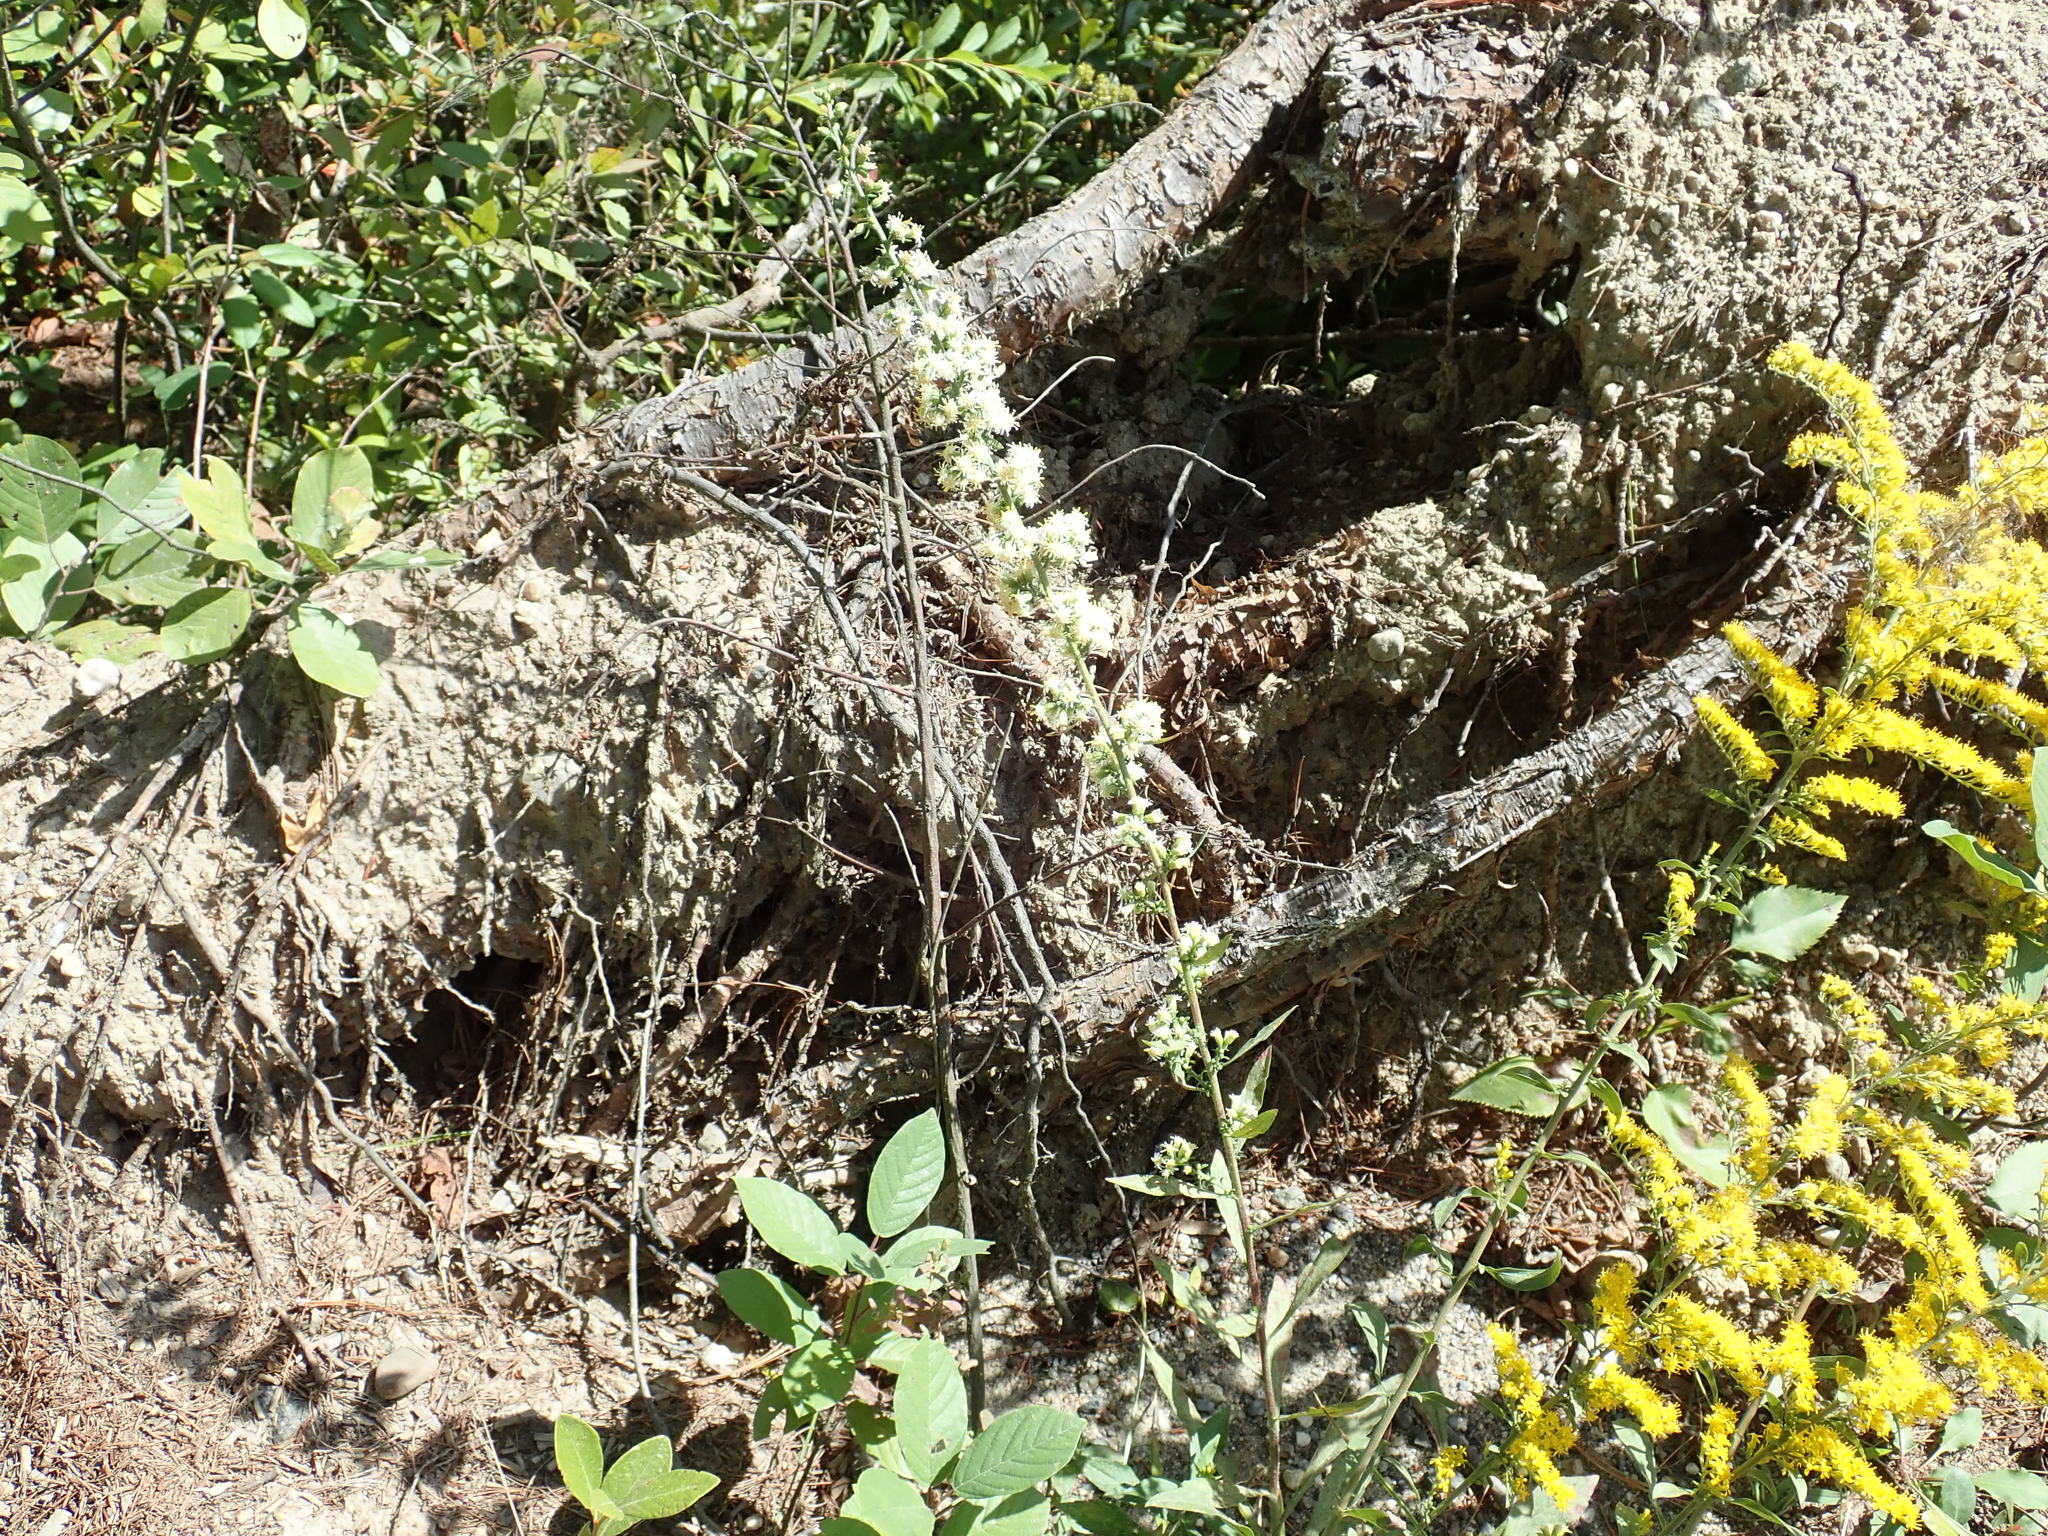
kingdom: Plantae
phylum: Tracheophyta
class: Magnoliopsida
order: Asterales
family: Asteraceae
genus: Solidago
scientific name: Solidago bicolor
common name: Silverrod
